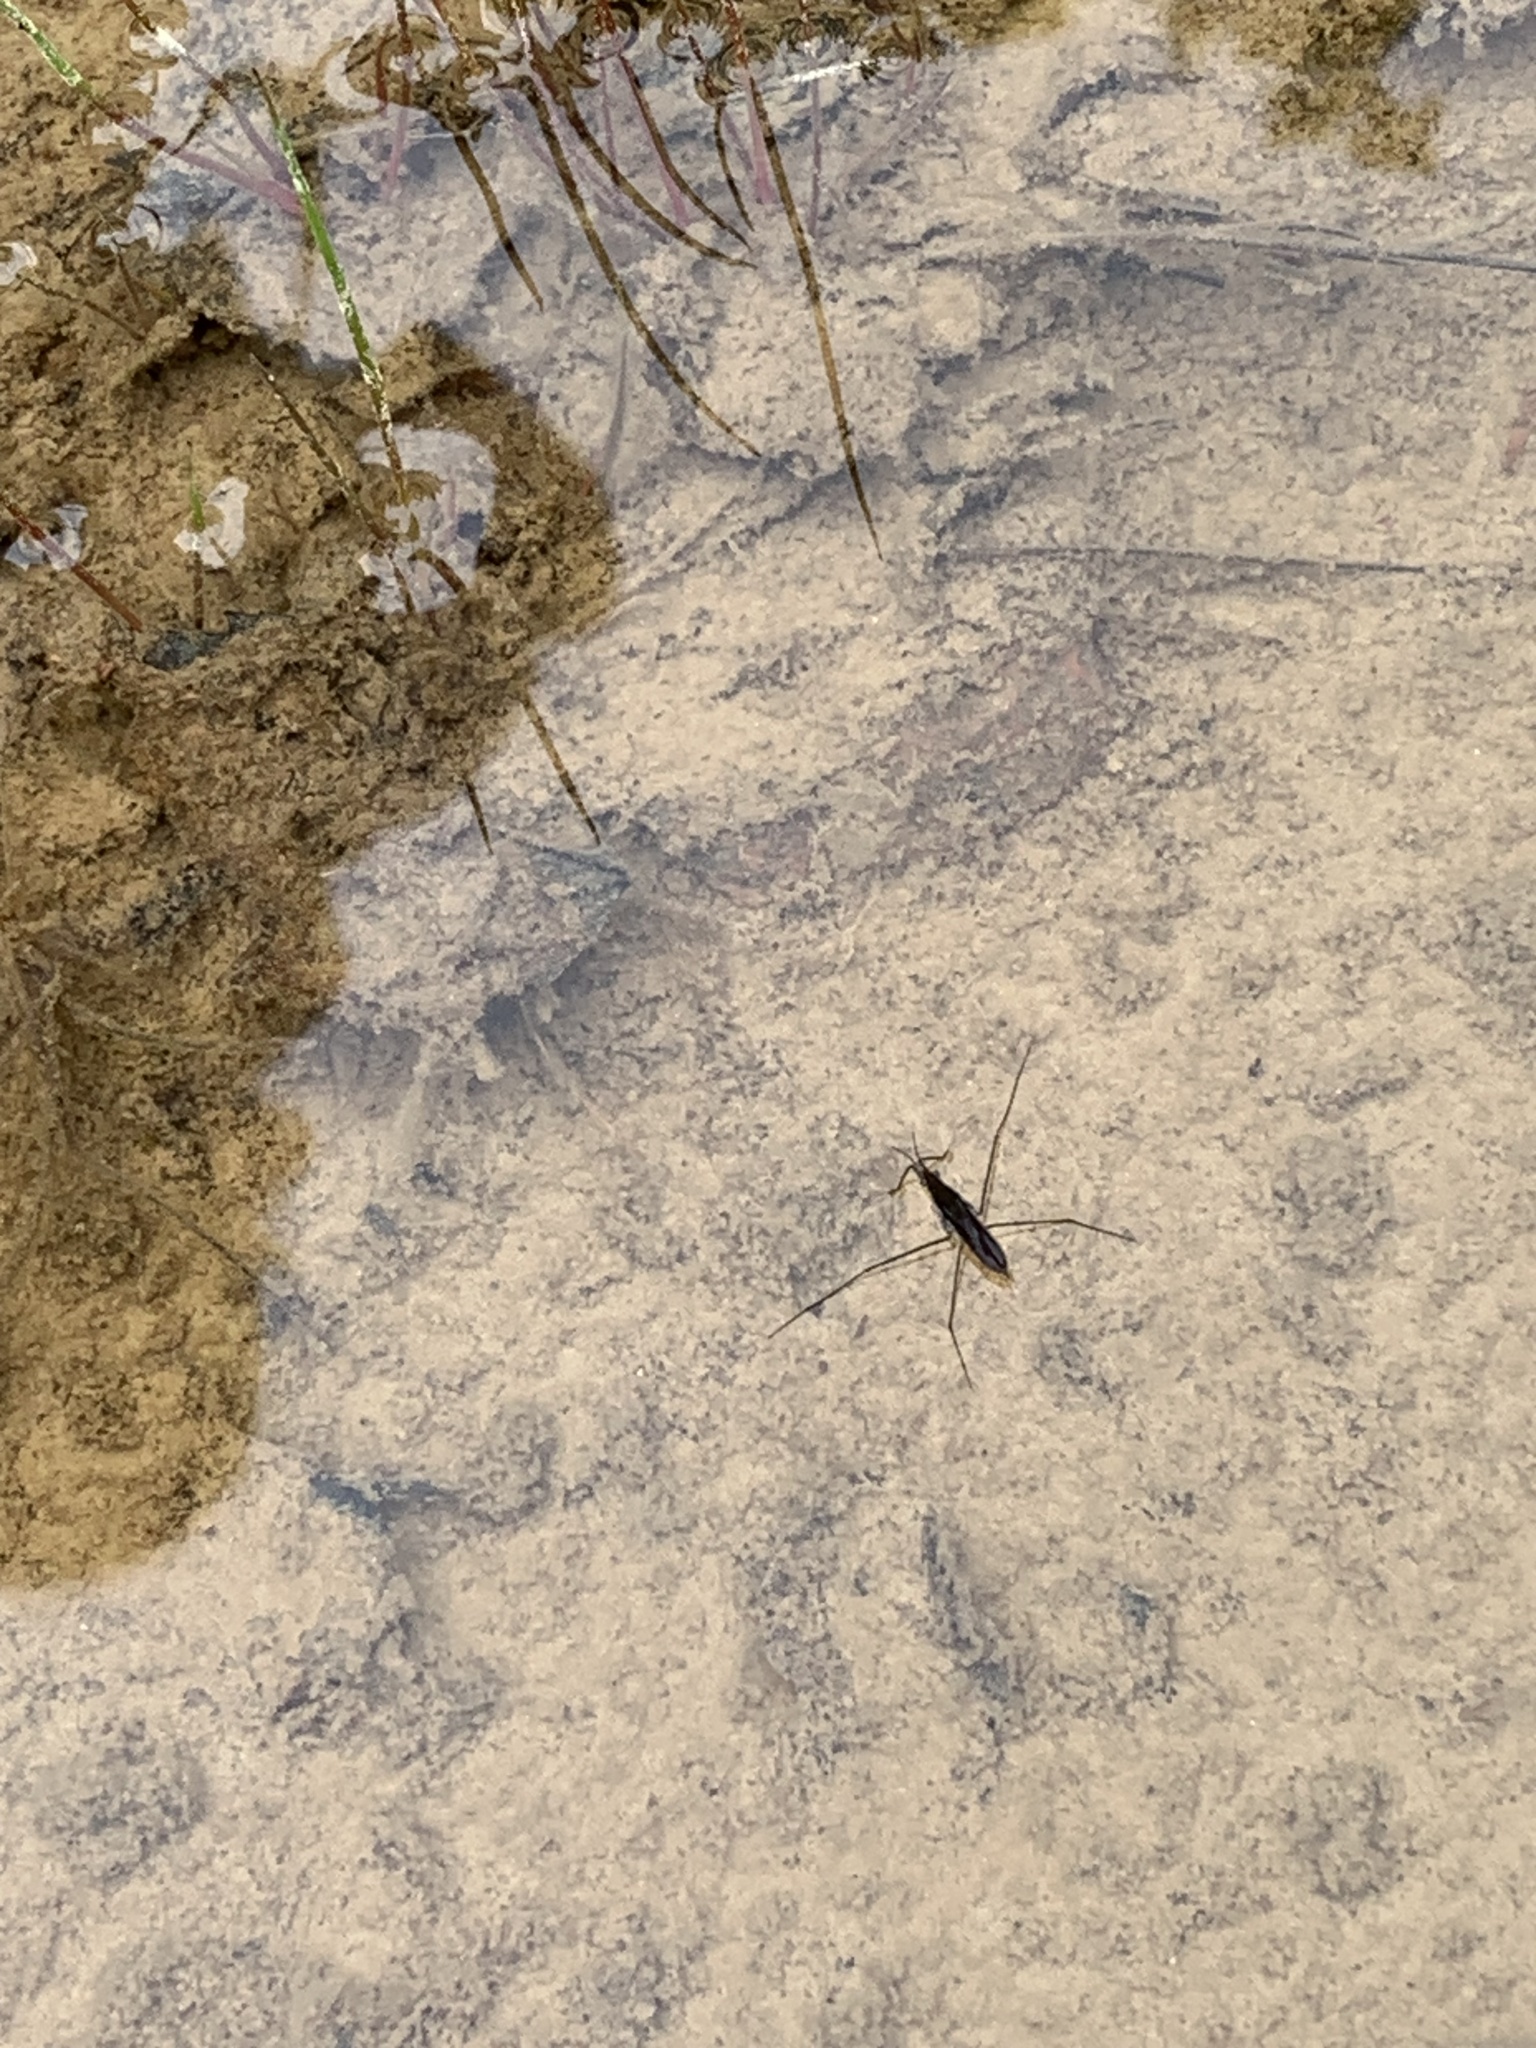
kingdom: Animalia
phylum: Arthropoda
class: Insecta
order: Hemiptera
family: Gerridae
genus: Gerris
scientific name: Gerris
